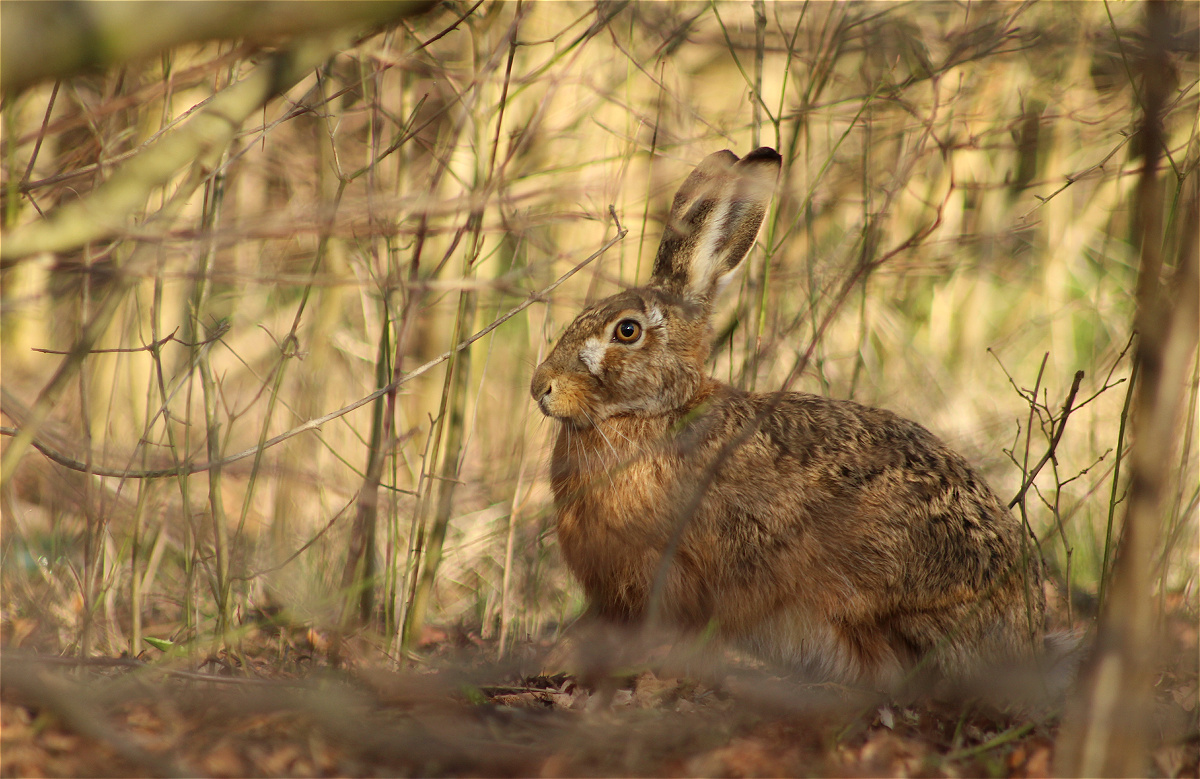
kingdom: Animalia
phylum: Chordata
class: Mammalia
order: Lagomorpha
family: Leporidae
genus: Lepus
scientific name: Lepus europaeus
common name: European hare
